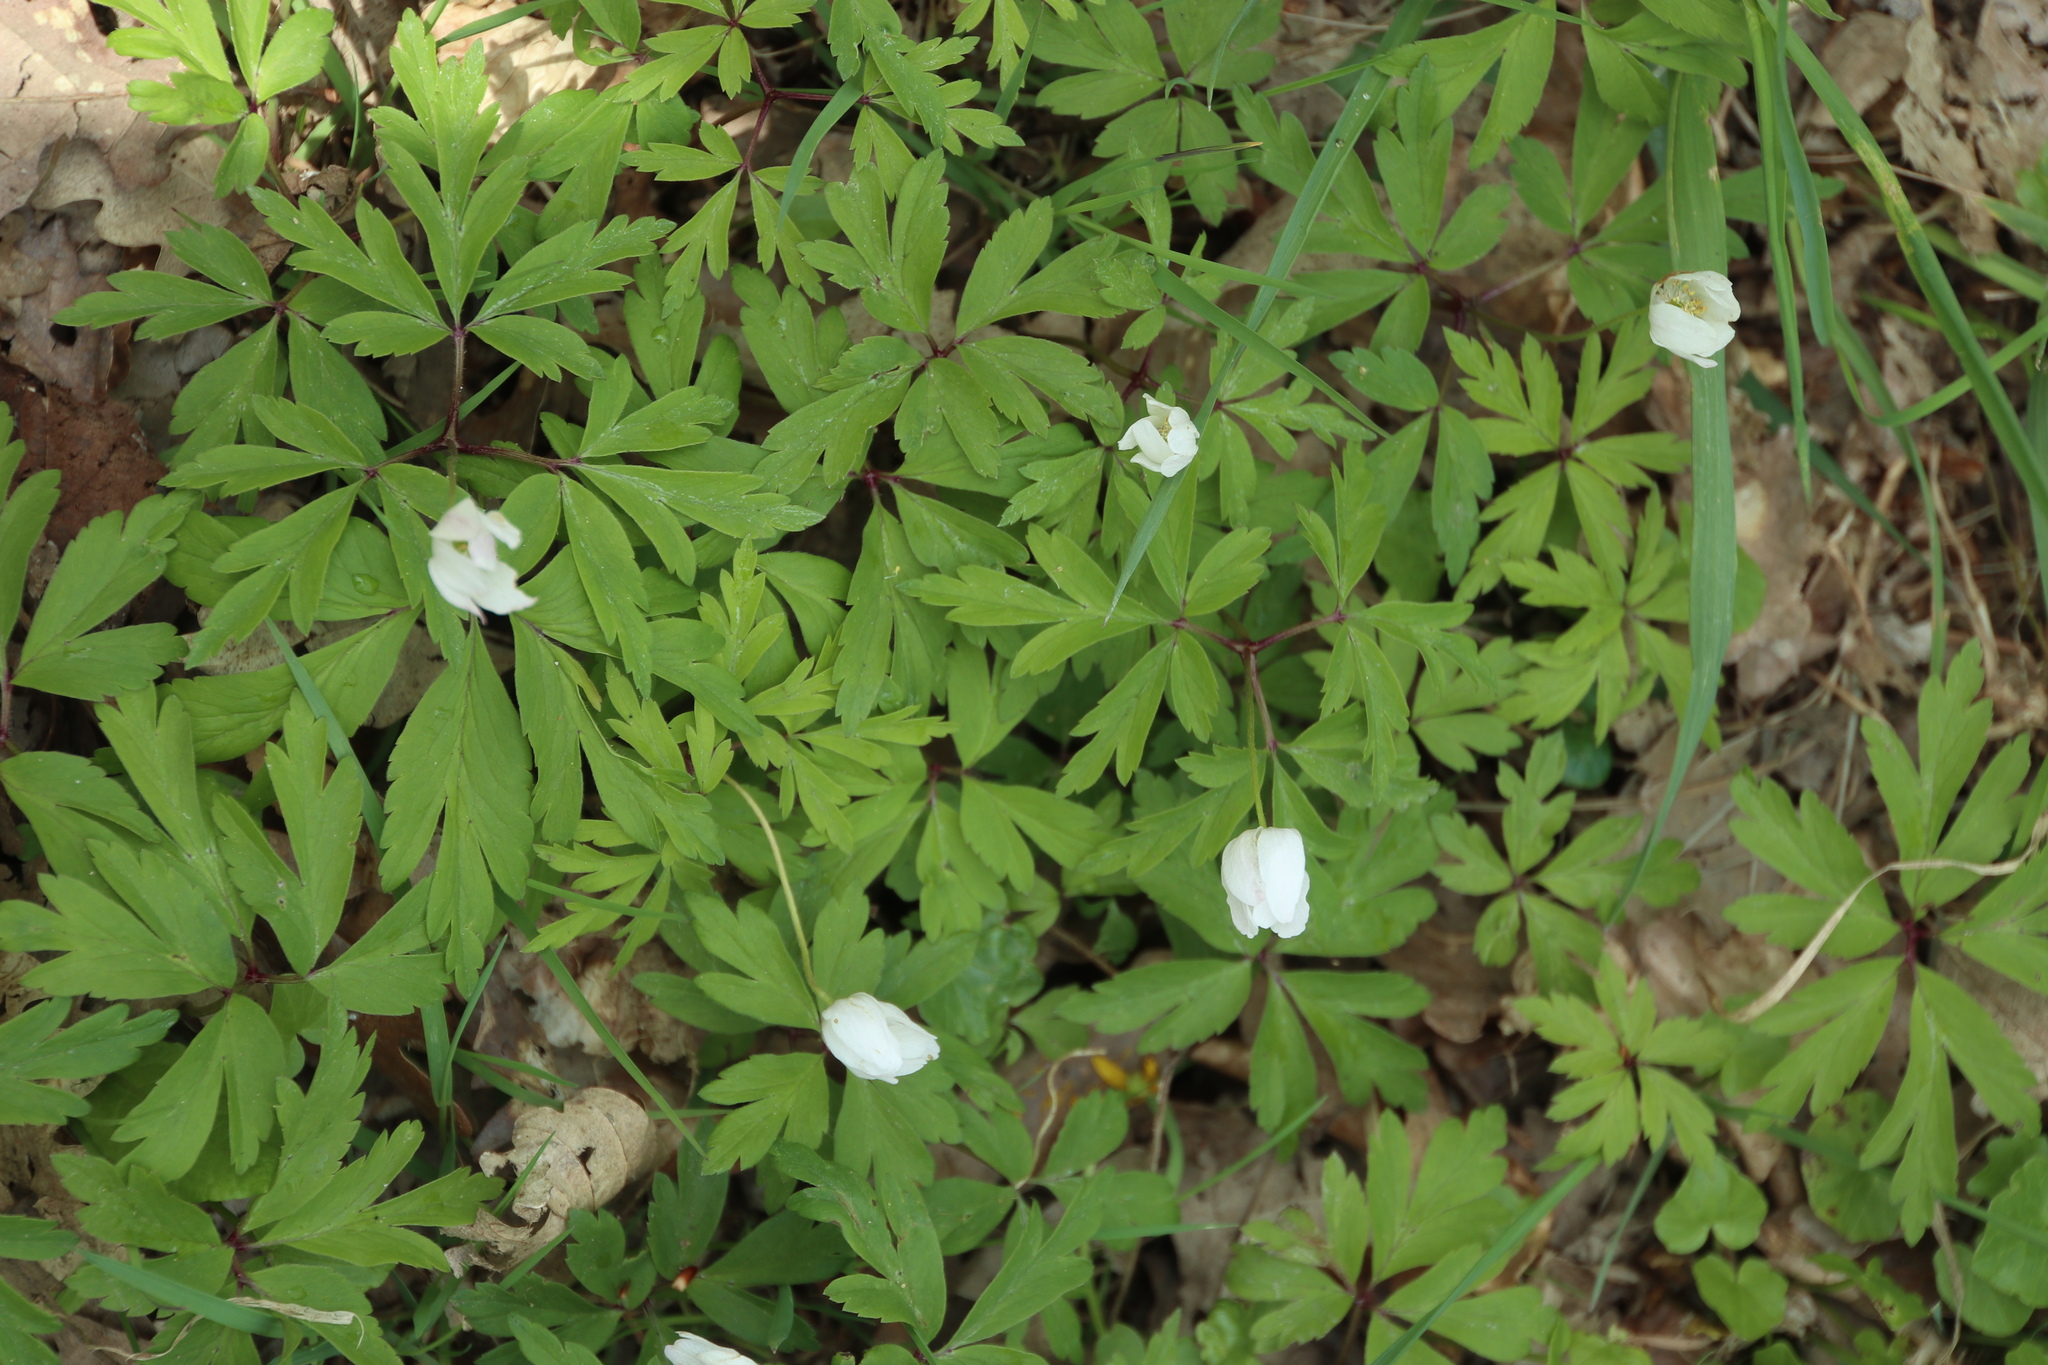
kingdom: Plantae
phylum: Tracheophyta
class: Magnoliopsida
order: Ranunculales
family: Ranunculaceae
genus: Anemone
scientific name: Anemone nemorosa
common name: Wood anemone
